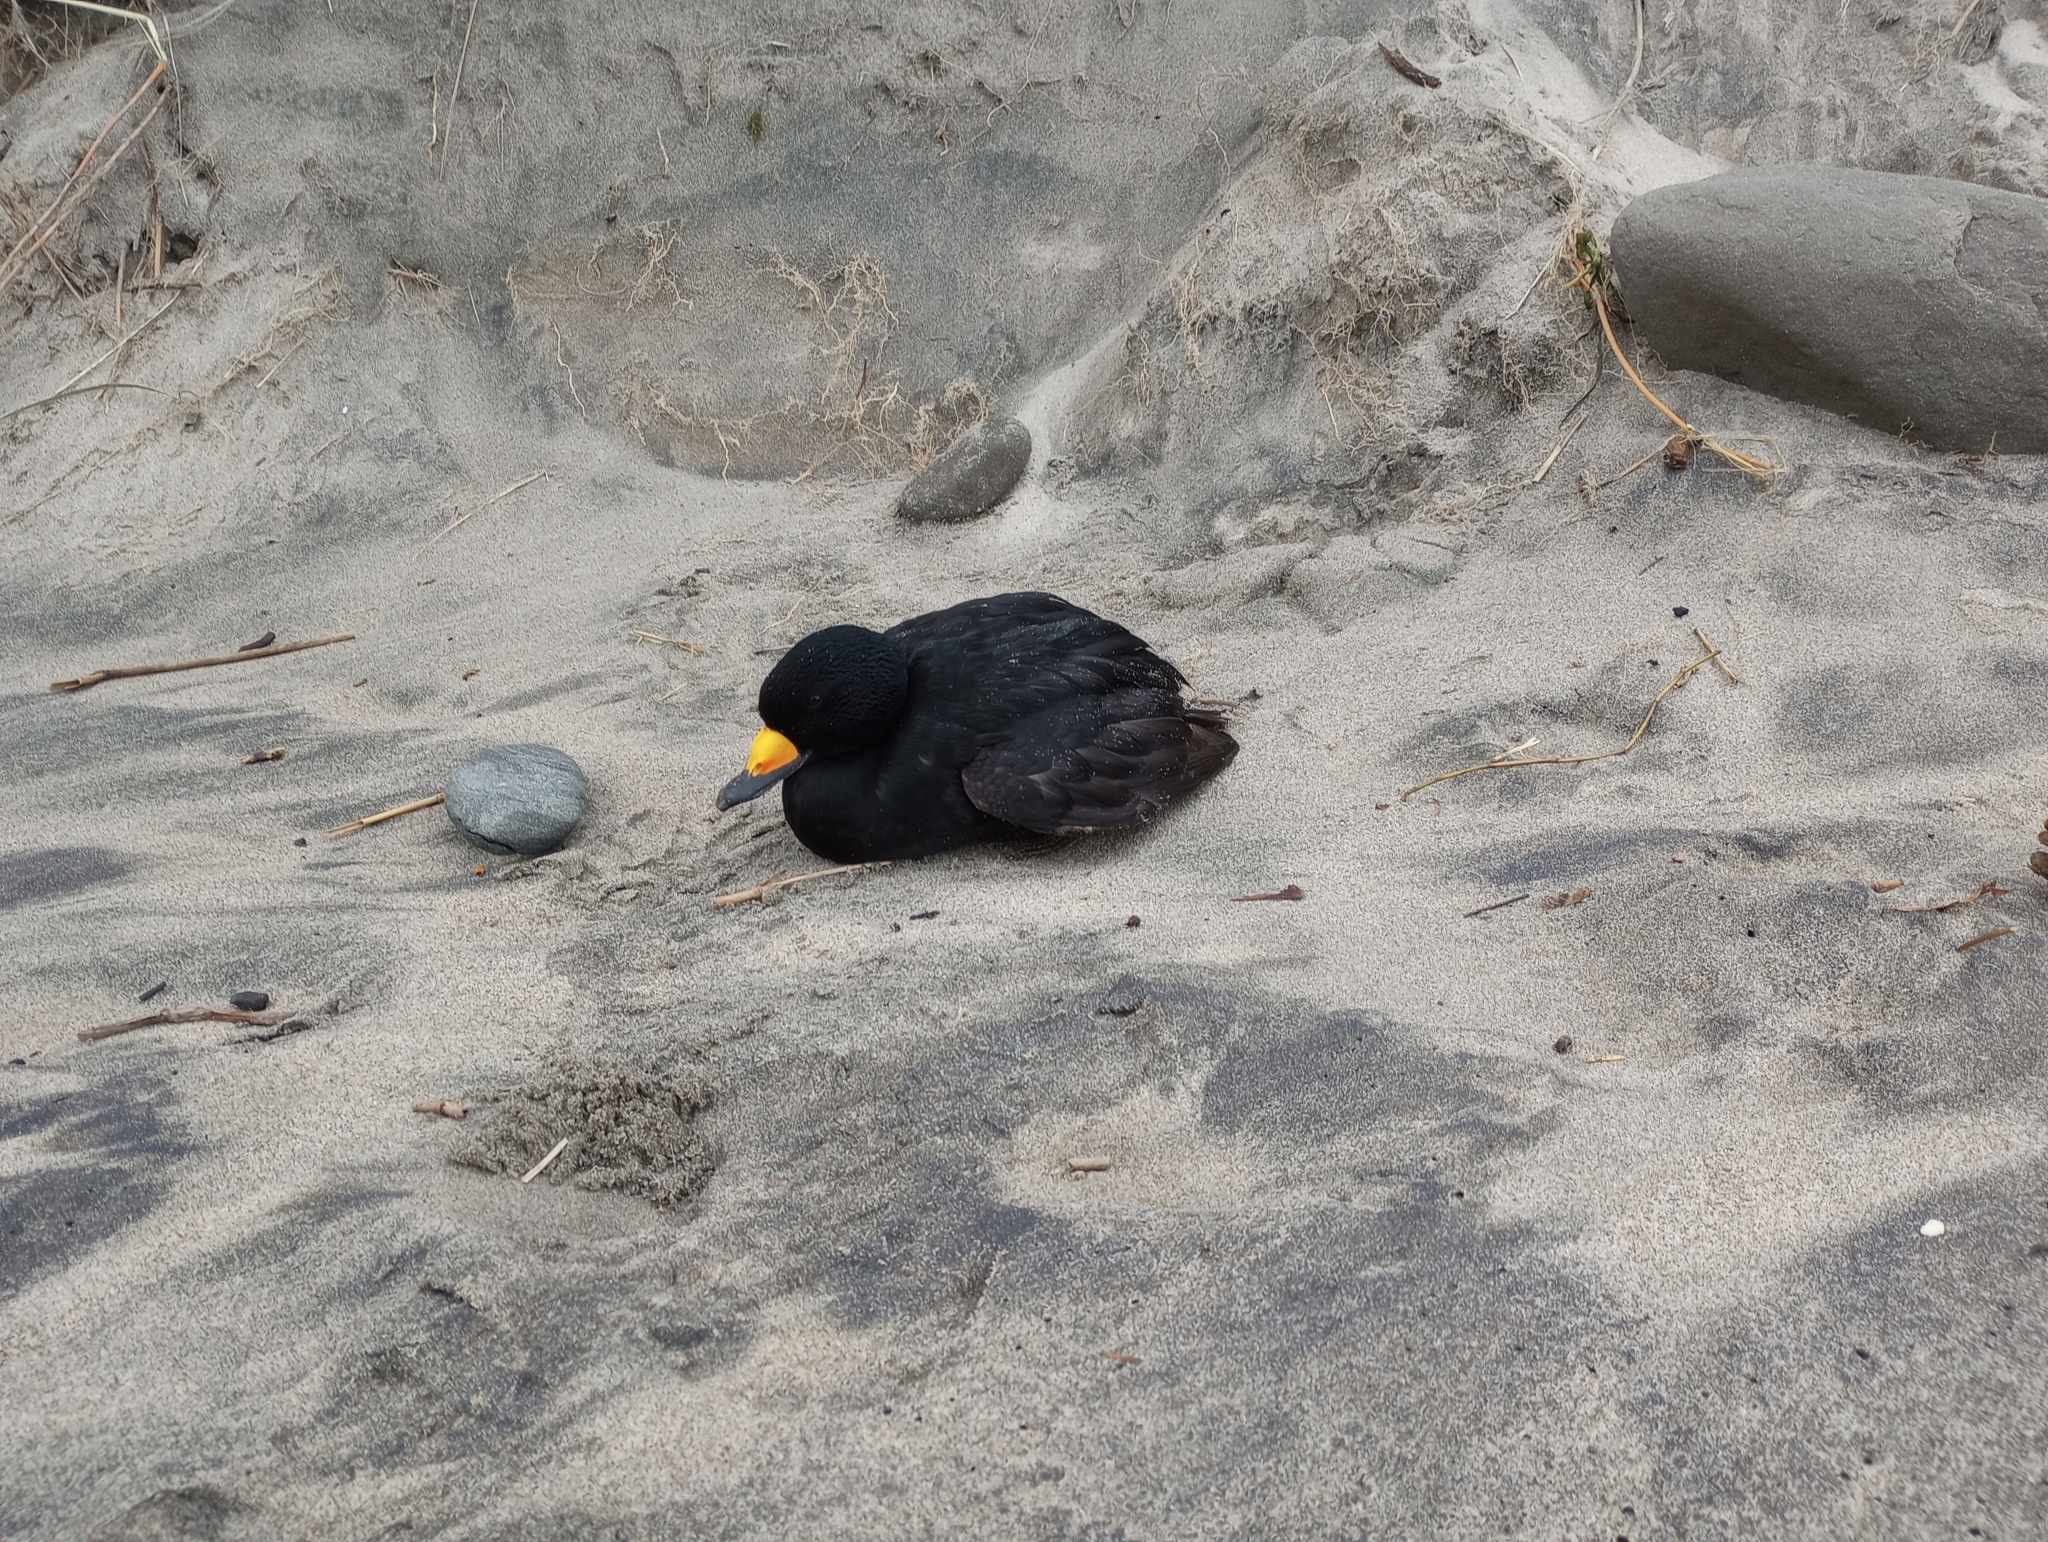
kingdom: Animalia
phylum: Chordata
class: Aves
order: Anseriformes
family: Anatidae
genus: Melanitta
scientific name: Melanitta americana
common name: Black scoter
